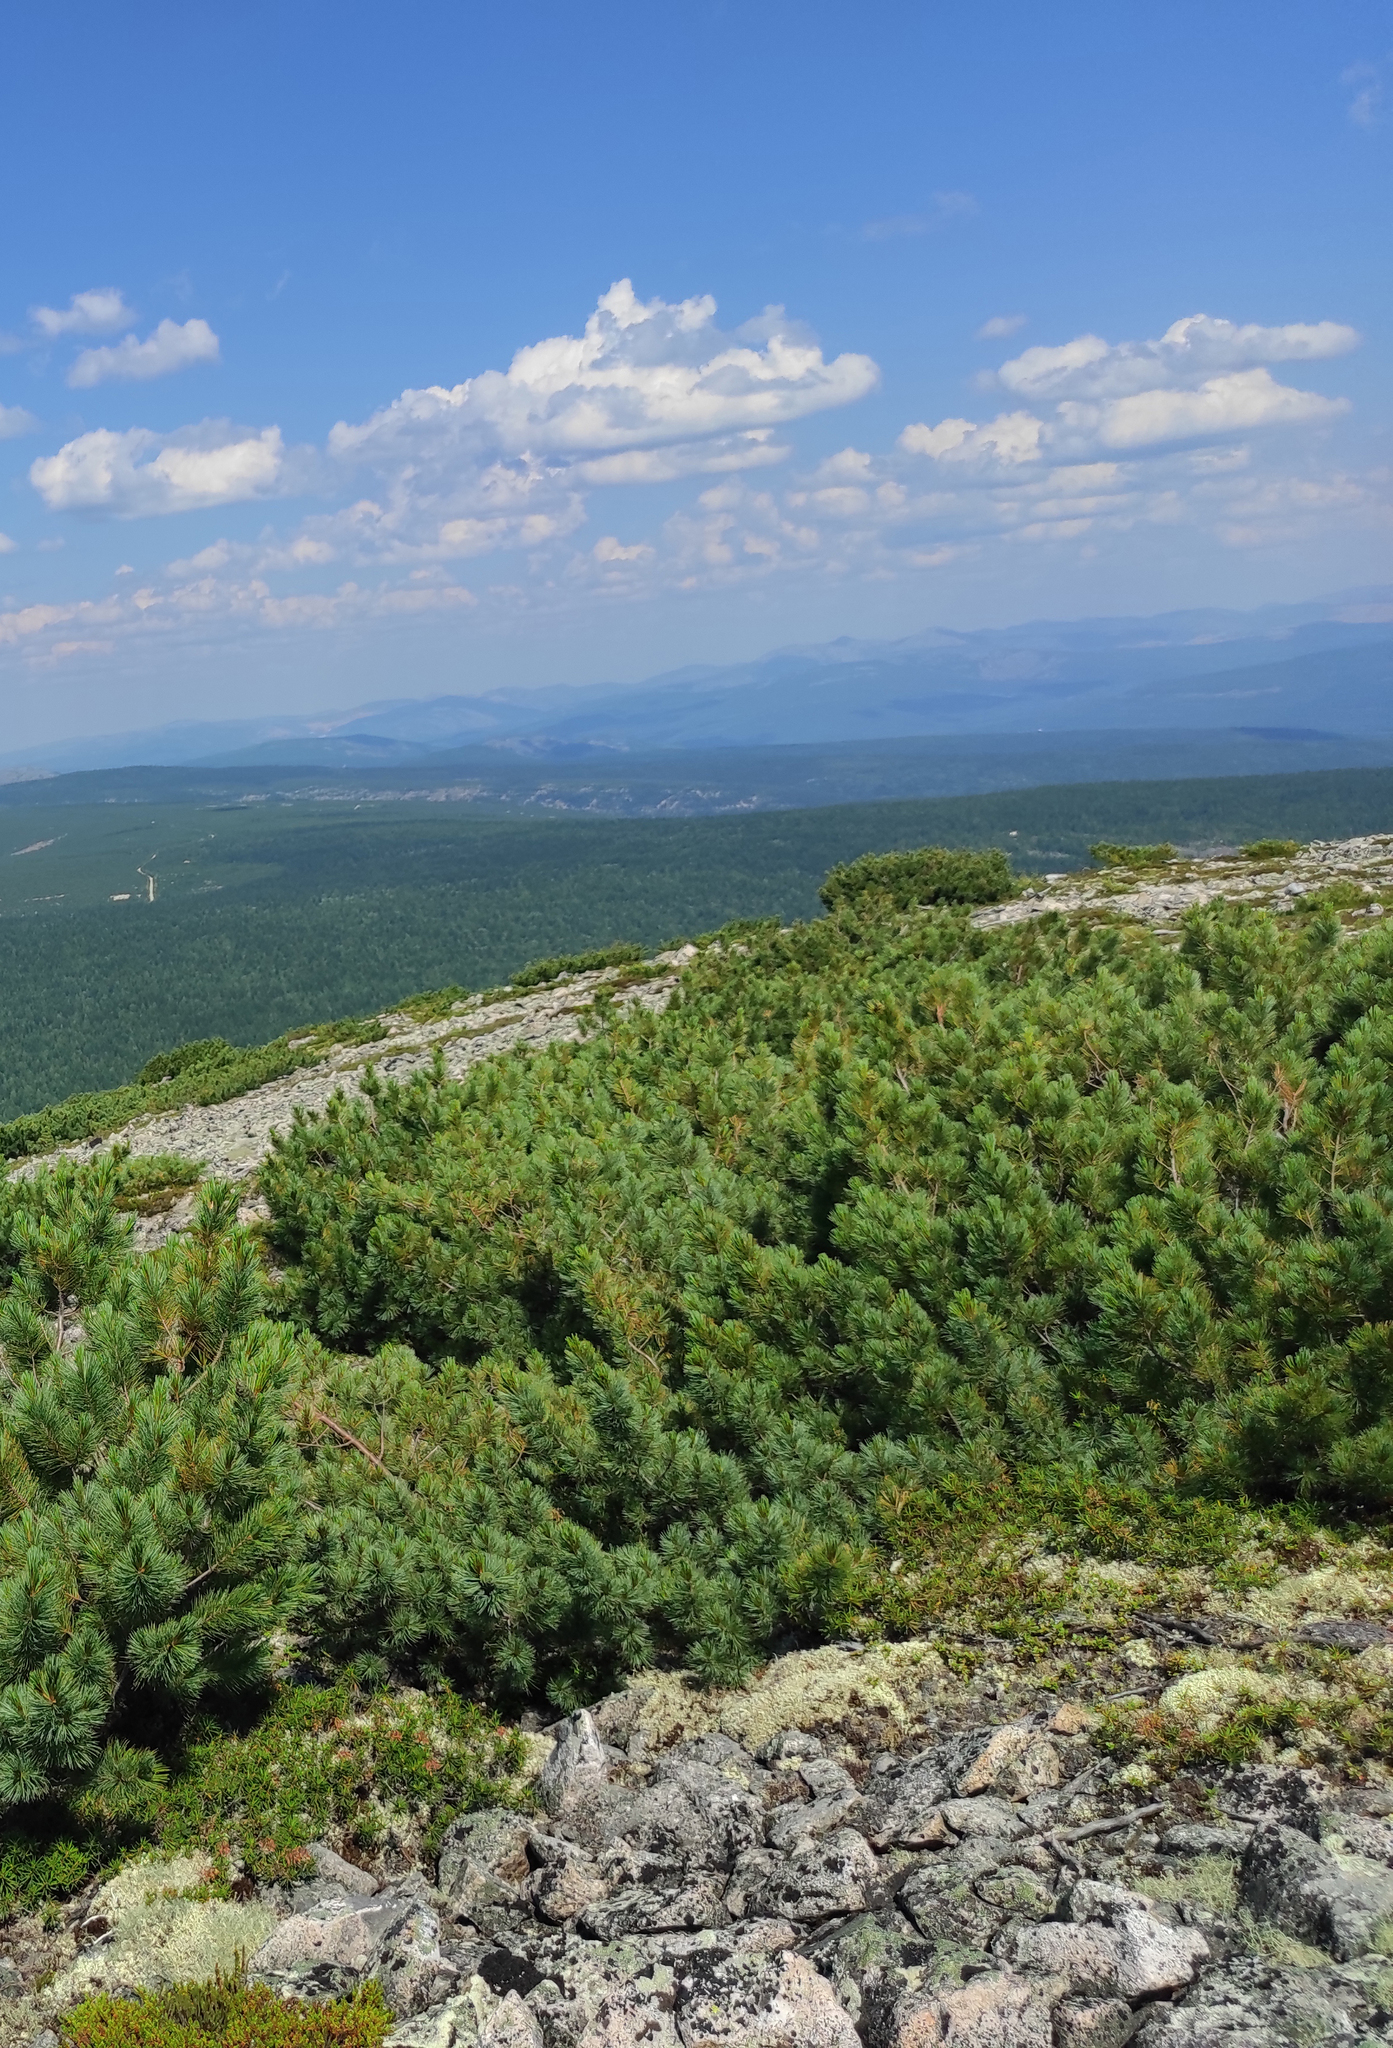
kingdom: Plantae
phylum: Tracheophyta
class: Pinopsida
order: Pinales
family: Pinaceae
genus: Pinus
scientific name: Pinus pumila
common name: Dwarf siberian pine
